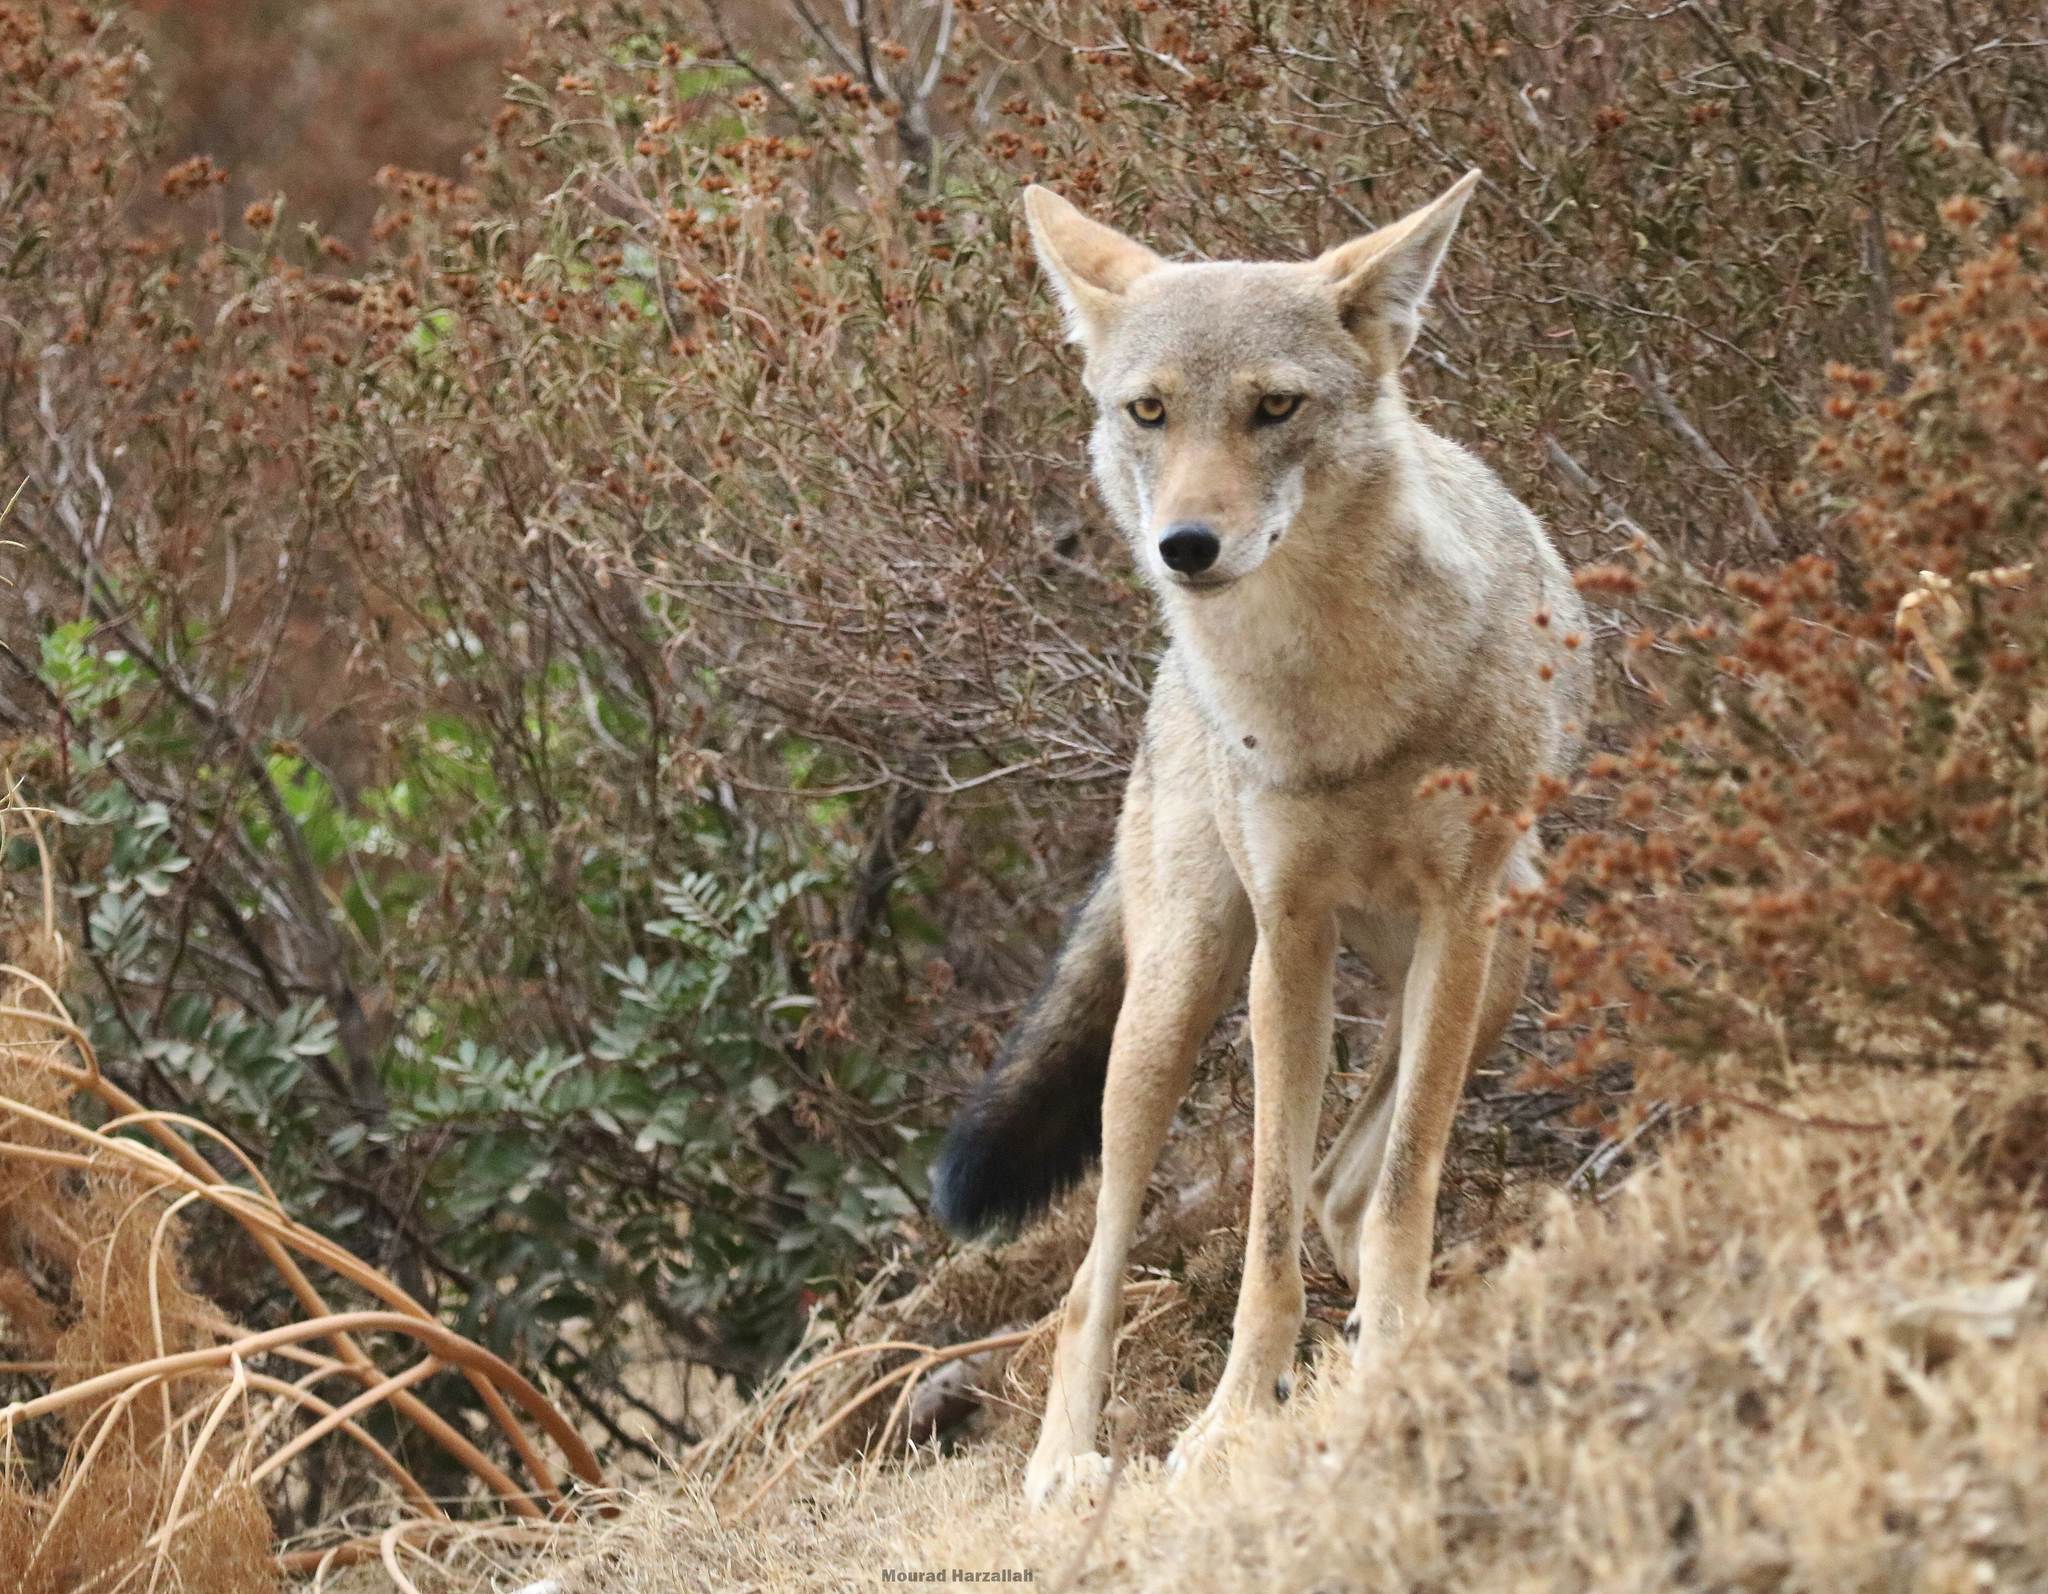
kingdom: Animalia
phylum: Chordata
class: Mammalia
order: Carnivora
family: Canidae
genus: Canis
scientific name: Canis lupaster
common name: African golden wolf
